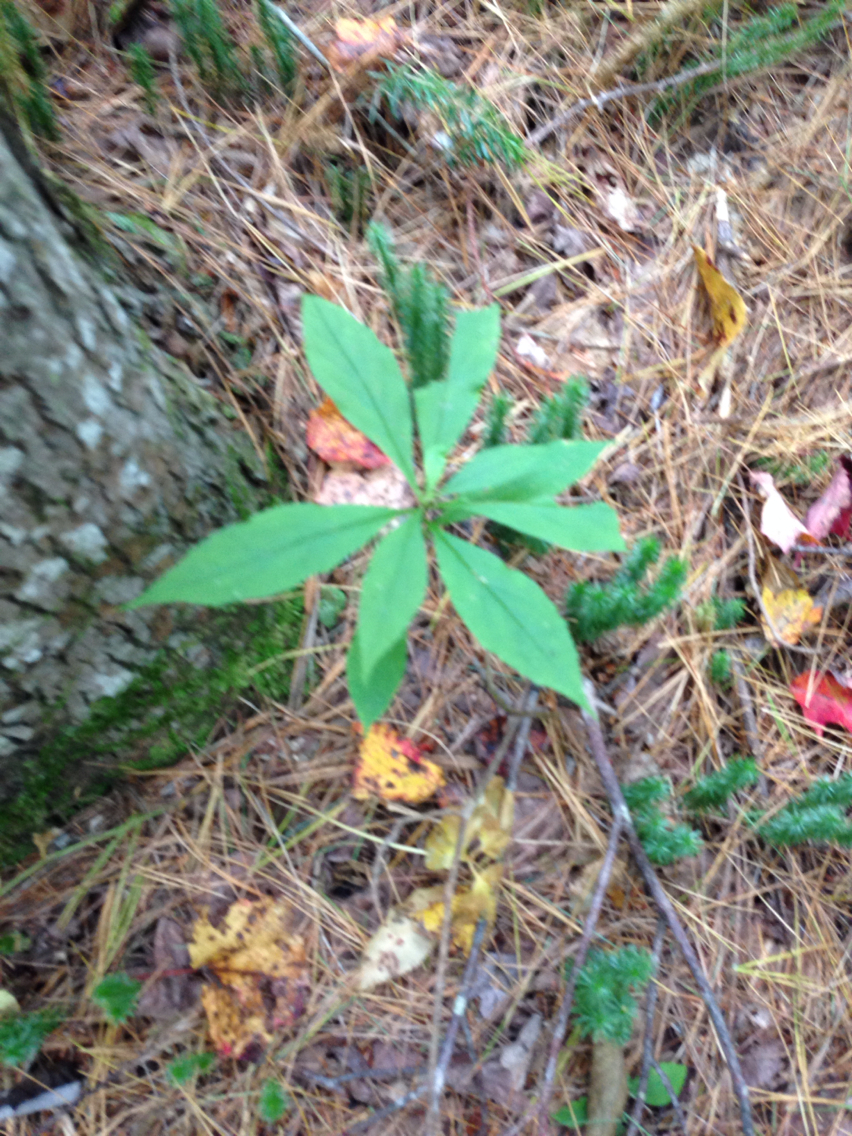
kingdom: Plantae
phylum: Tracheophyta
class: Magnoliopsida
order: Asterales
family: Asteraceae
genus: Oclemena
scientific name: Oclemena acuminata
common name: Mountain aster
